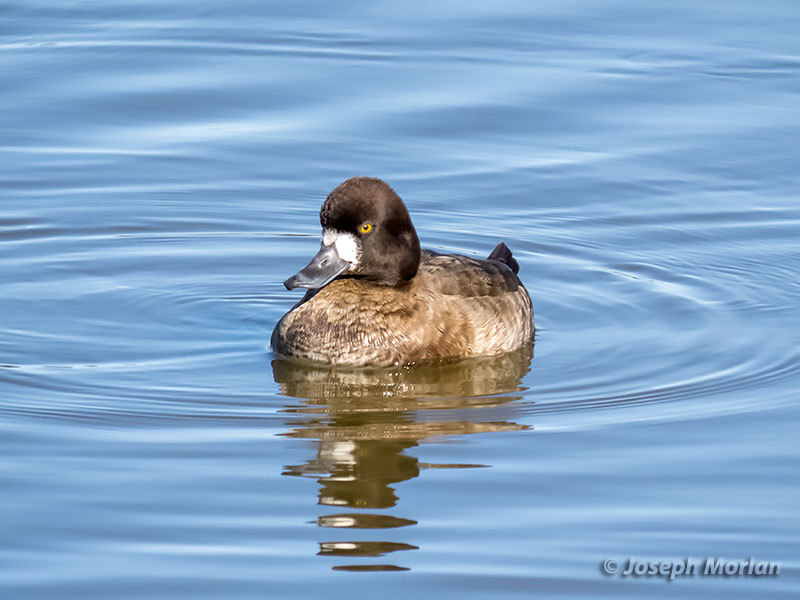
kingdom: Animalia
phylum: Chordata
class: Aves
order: Anseriformes
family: Anatidae
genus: Aythya
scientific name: Aythya affinis
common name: Lesser scaup
